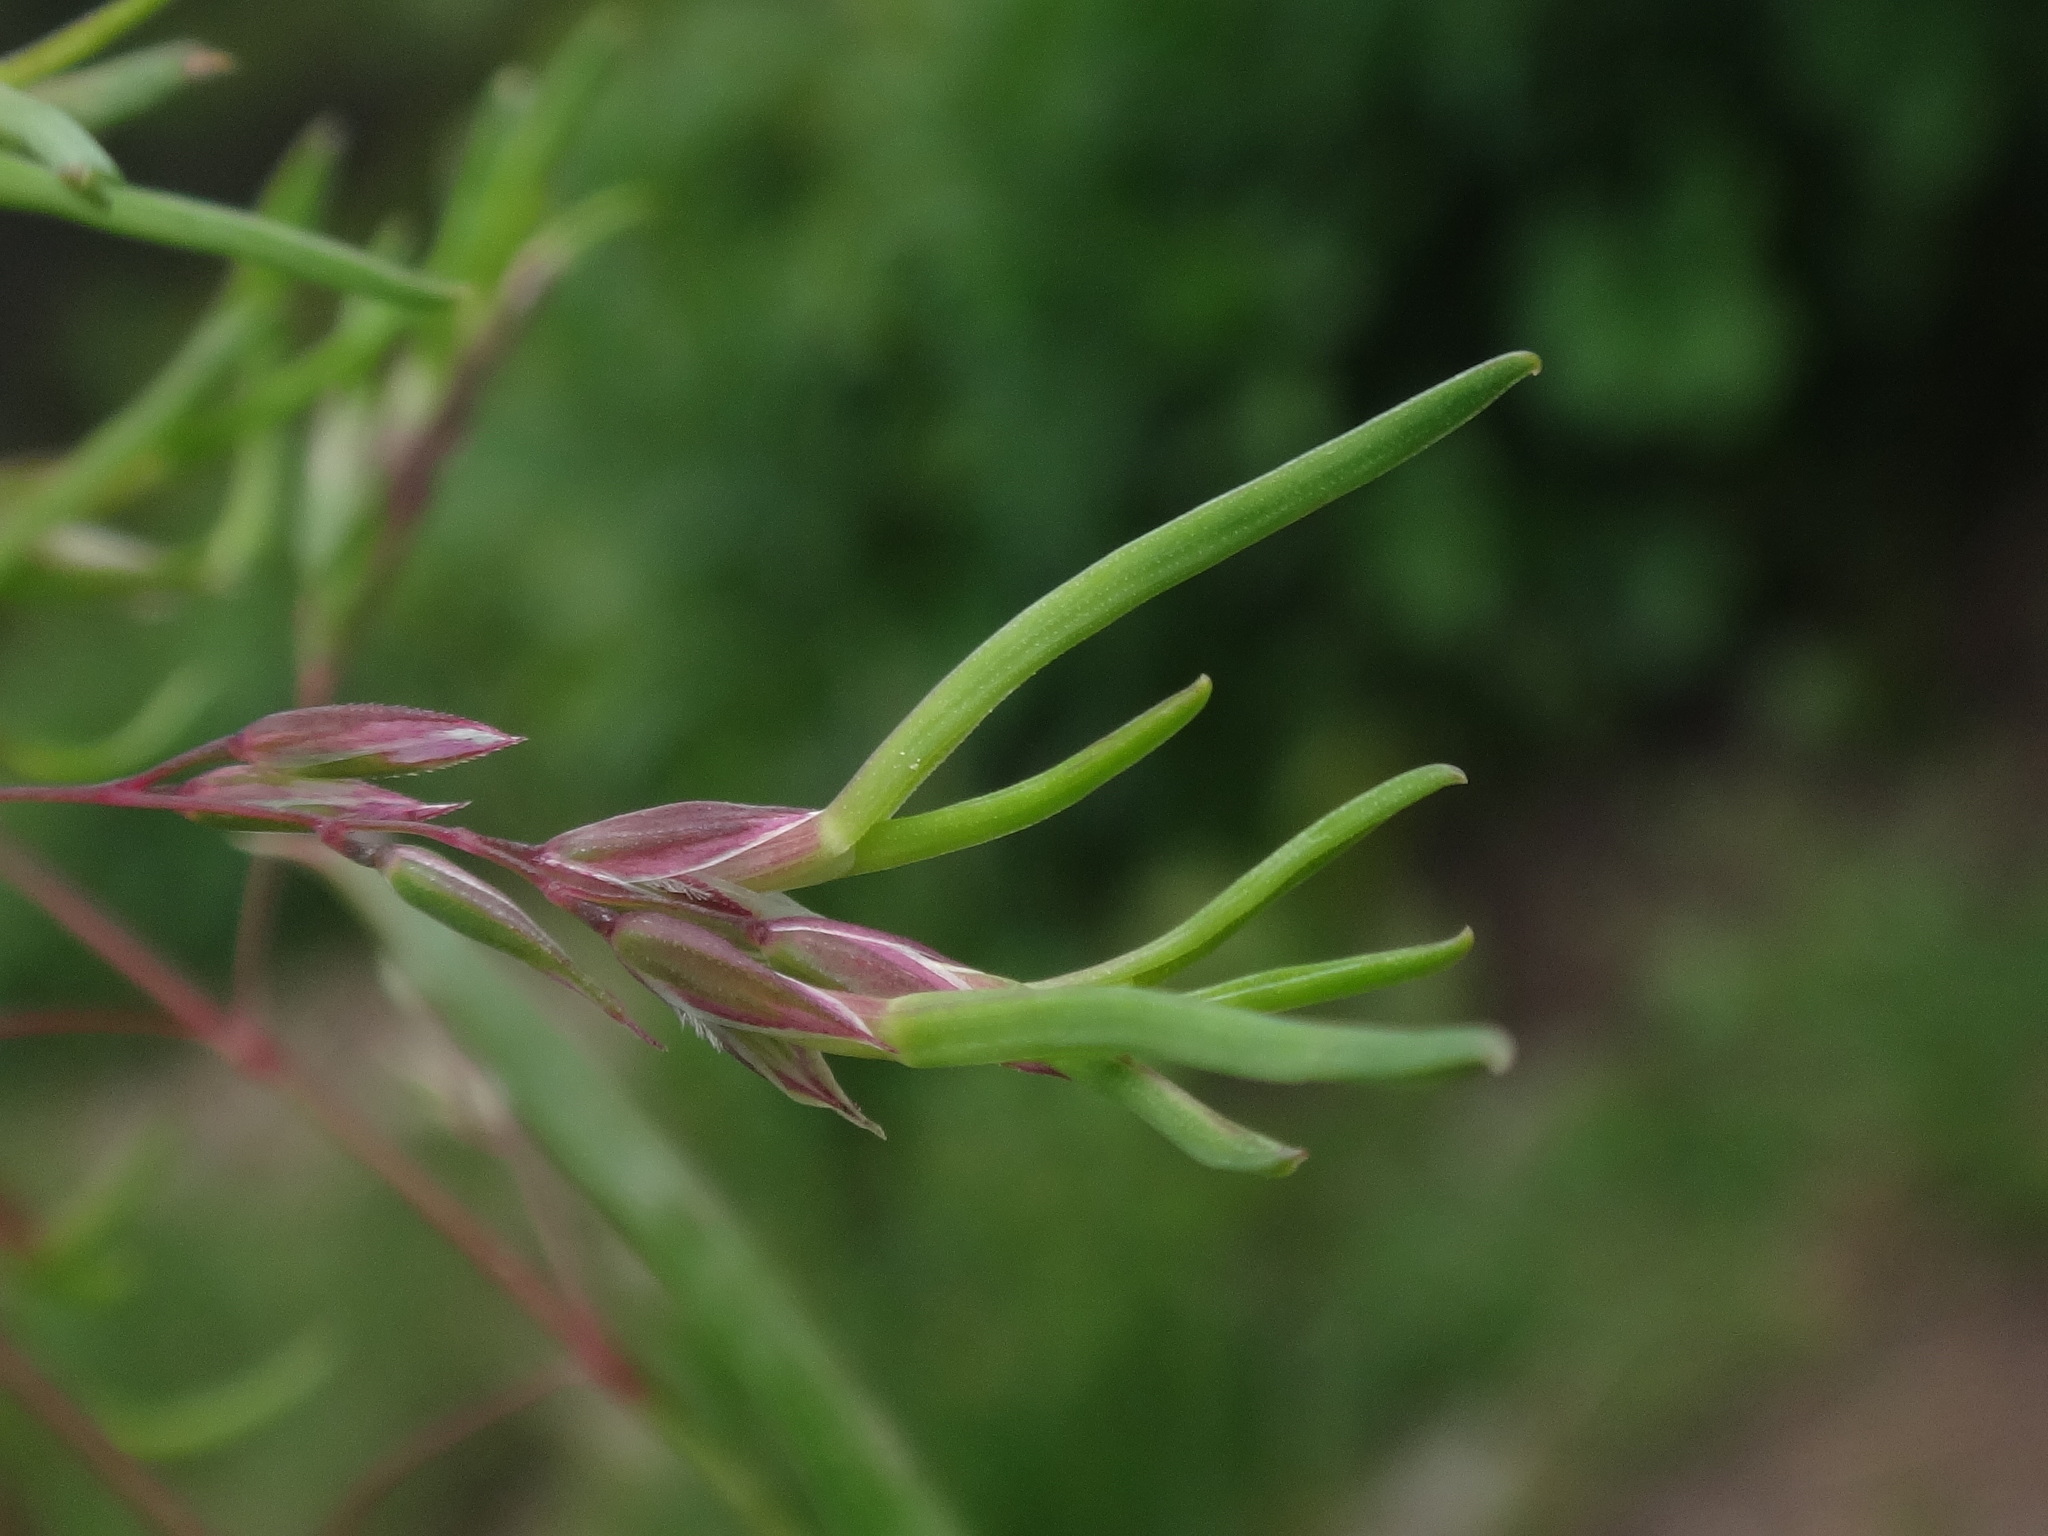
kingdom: Plantae
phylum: Tracheophyta
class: Liliopsida
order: Poales
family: Poaceae
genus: Poa
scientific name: Poa alpina
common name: Alpine bluegrass
